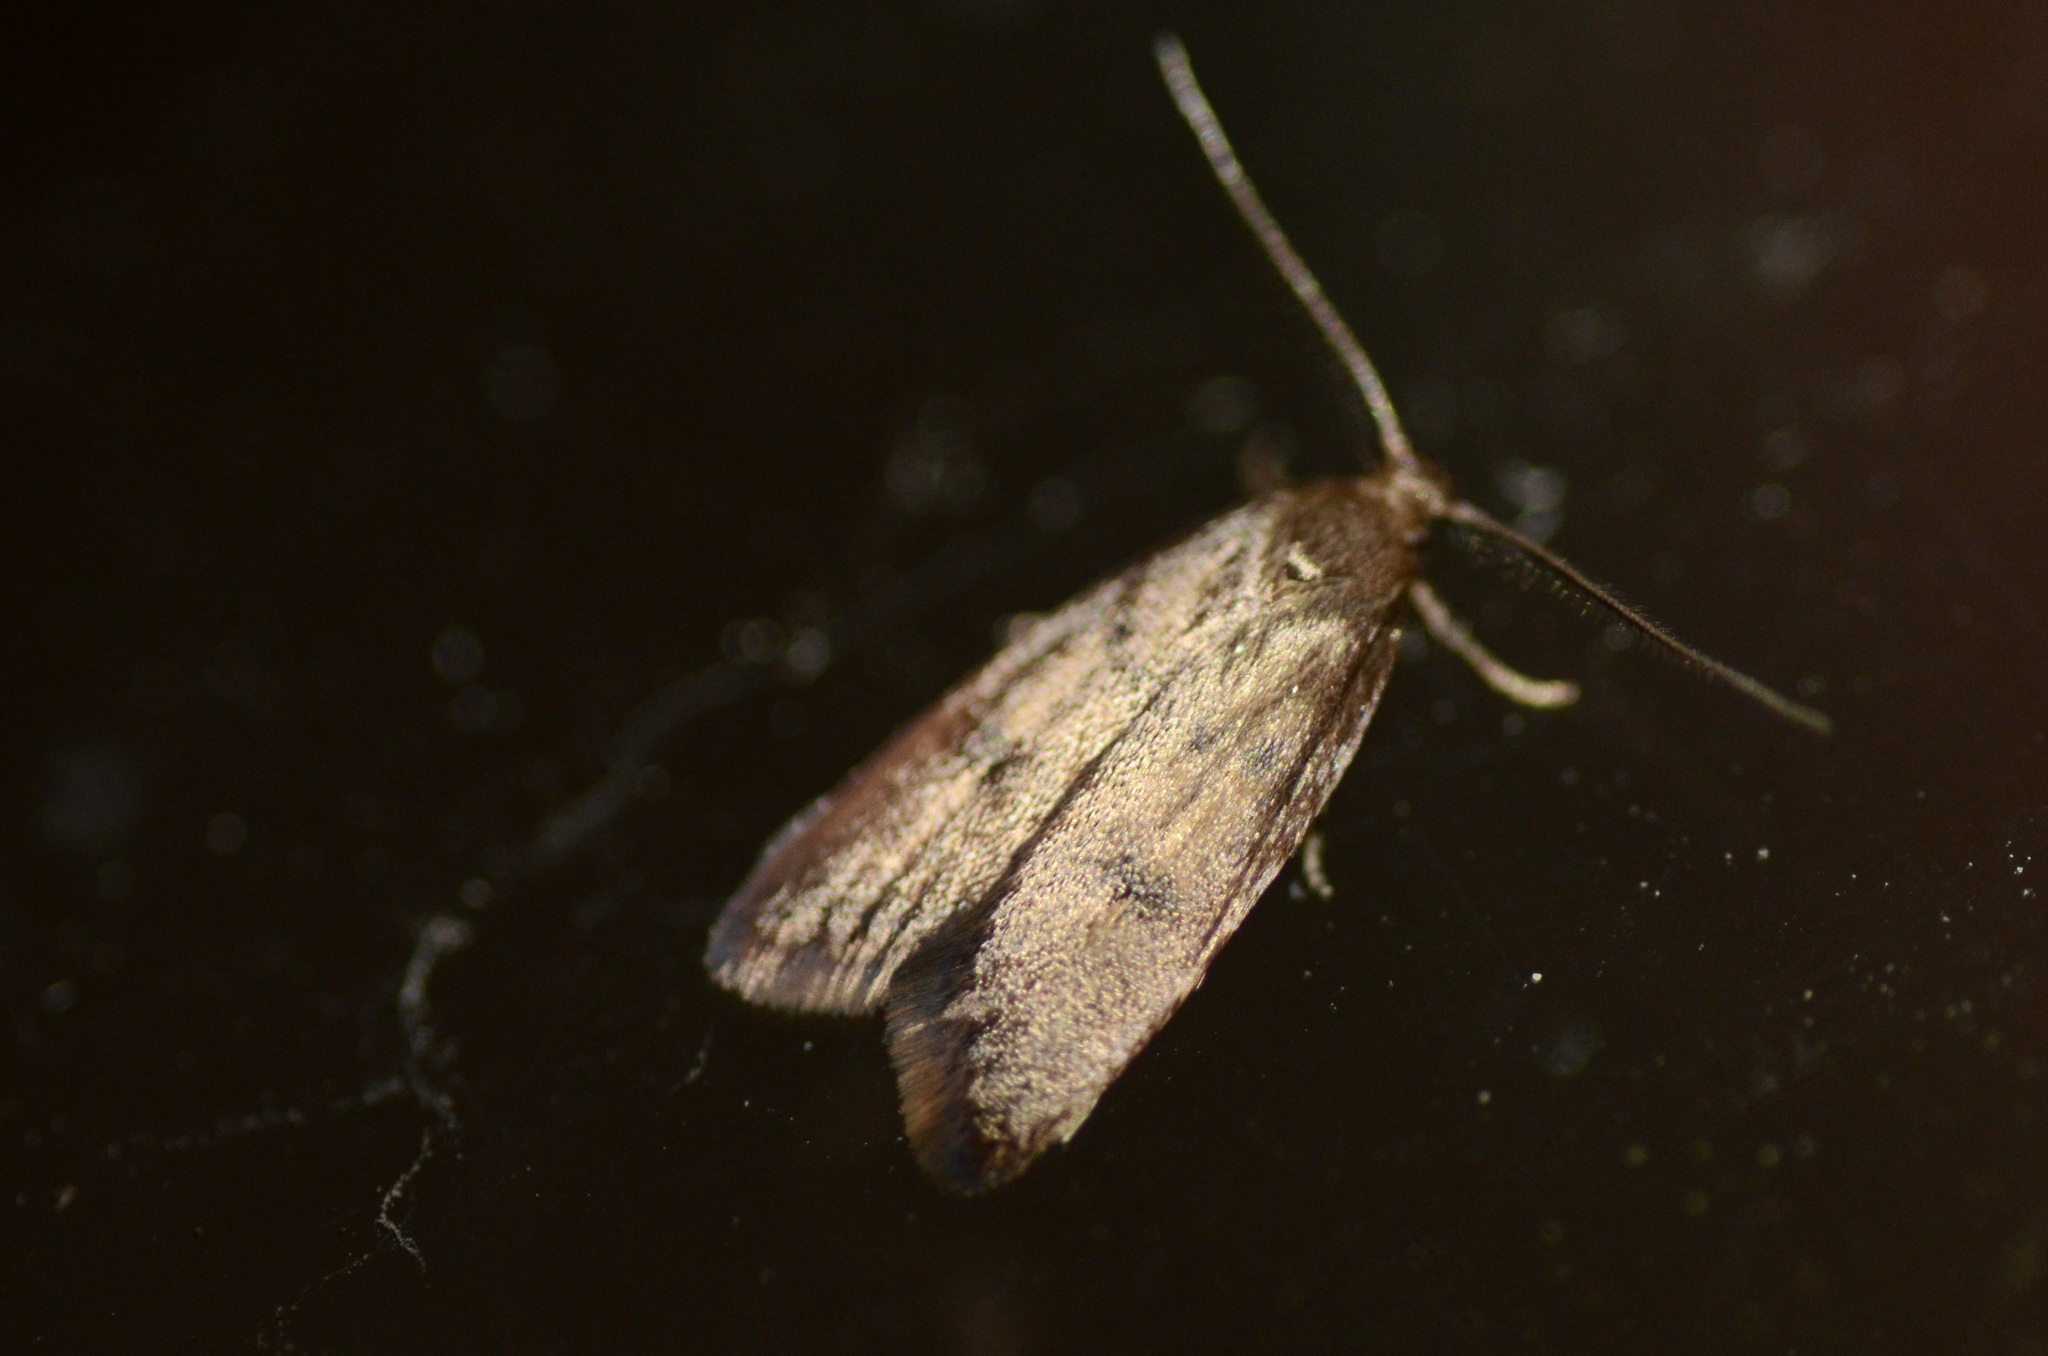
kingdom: Animalia
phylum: Arthropoda
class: Insecta
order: Lepidoptera
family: Oecophoridae
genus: Tachystola
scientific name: Tachystola acroxantha
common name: Ruddy streak
